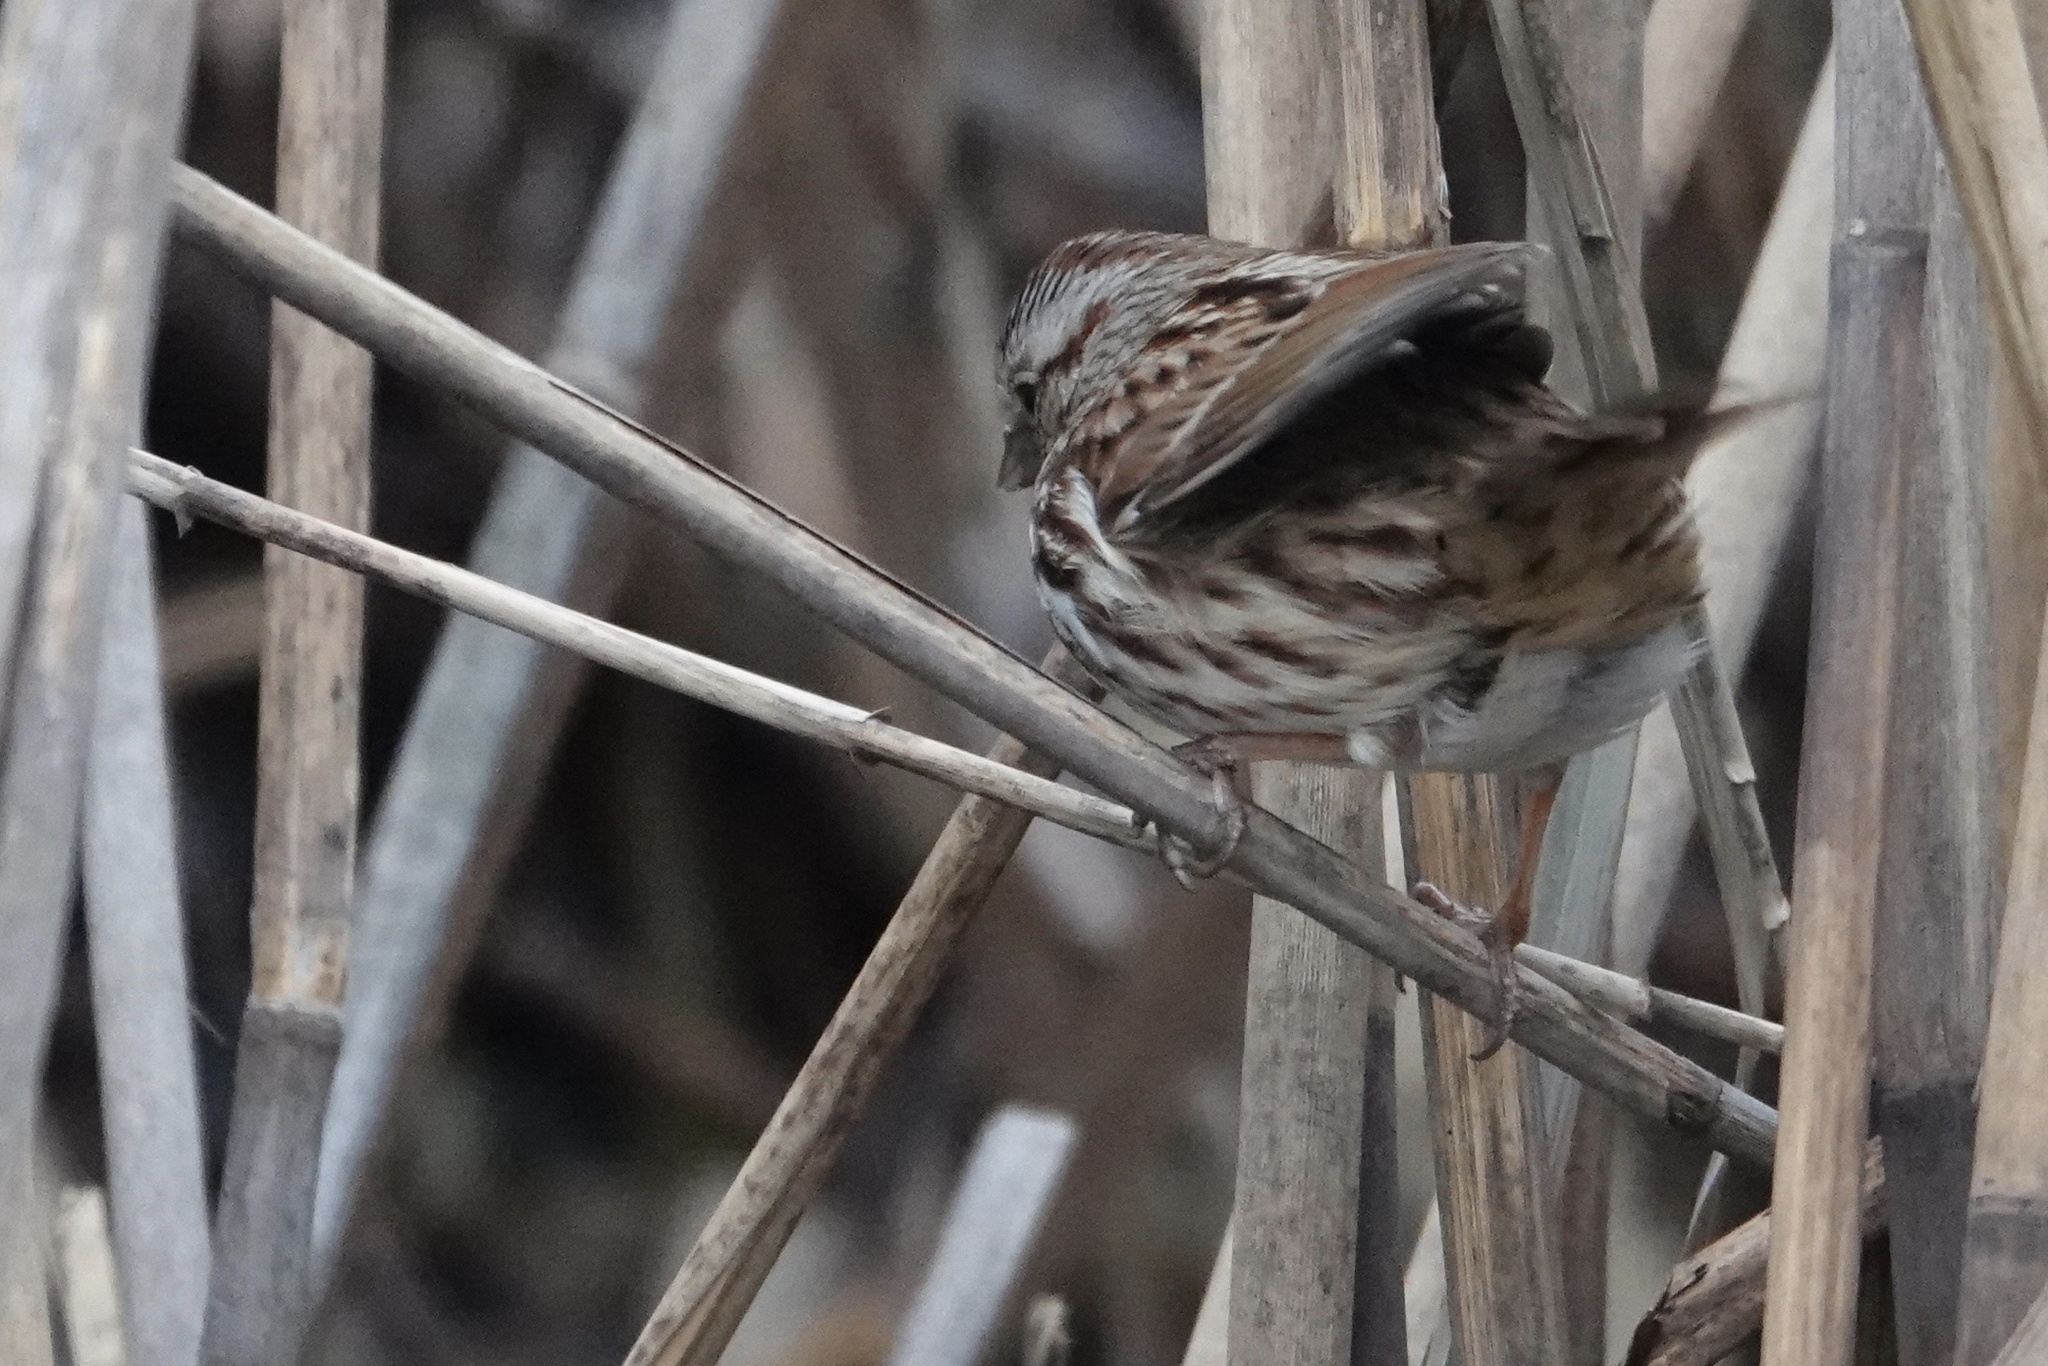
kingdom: Animalia
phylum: Chordata
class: Aves
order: Passeriformes
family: Passerellidae
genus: Melospiza
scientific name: Melospiza melodia
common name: Song sparrow
